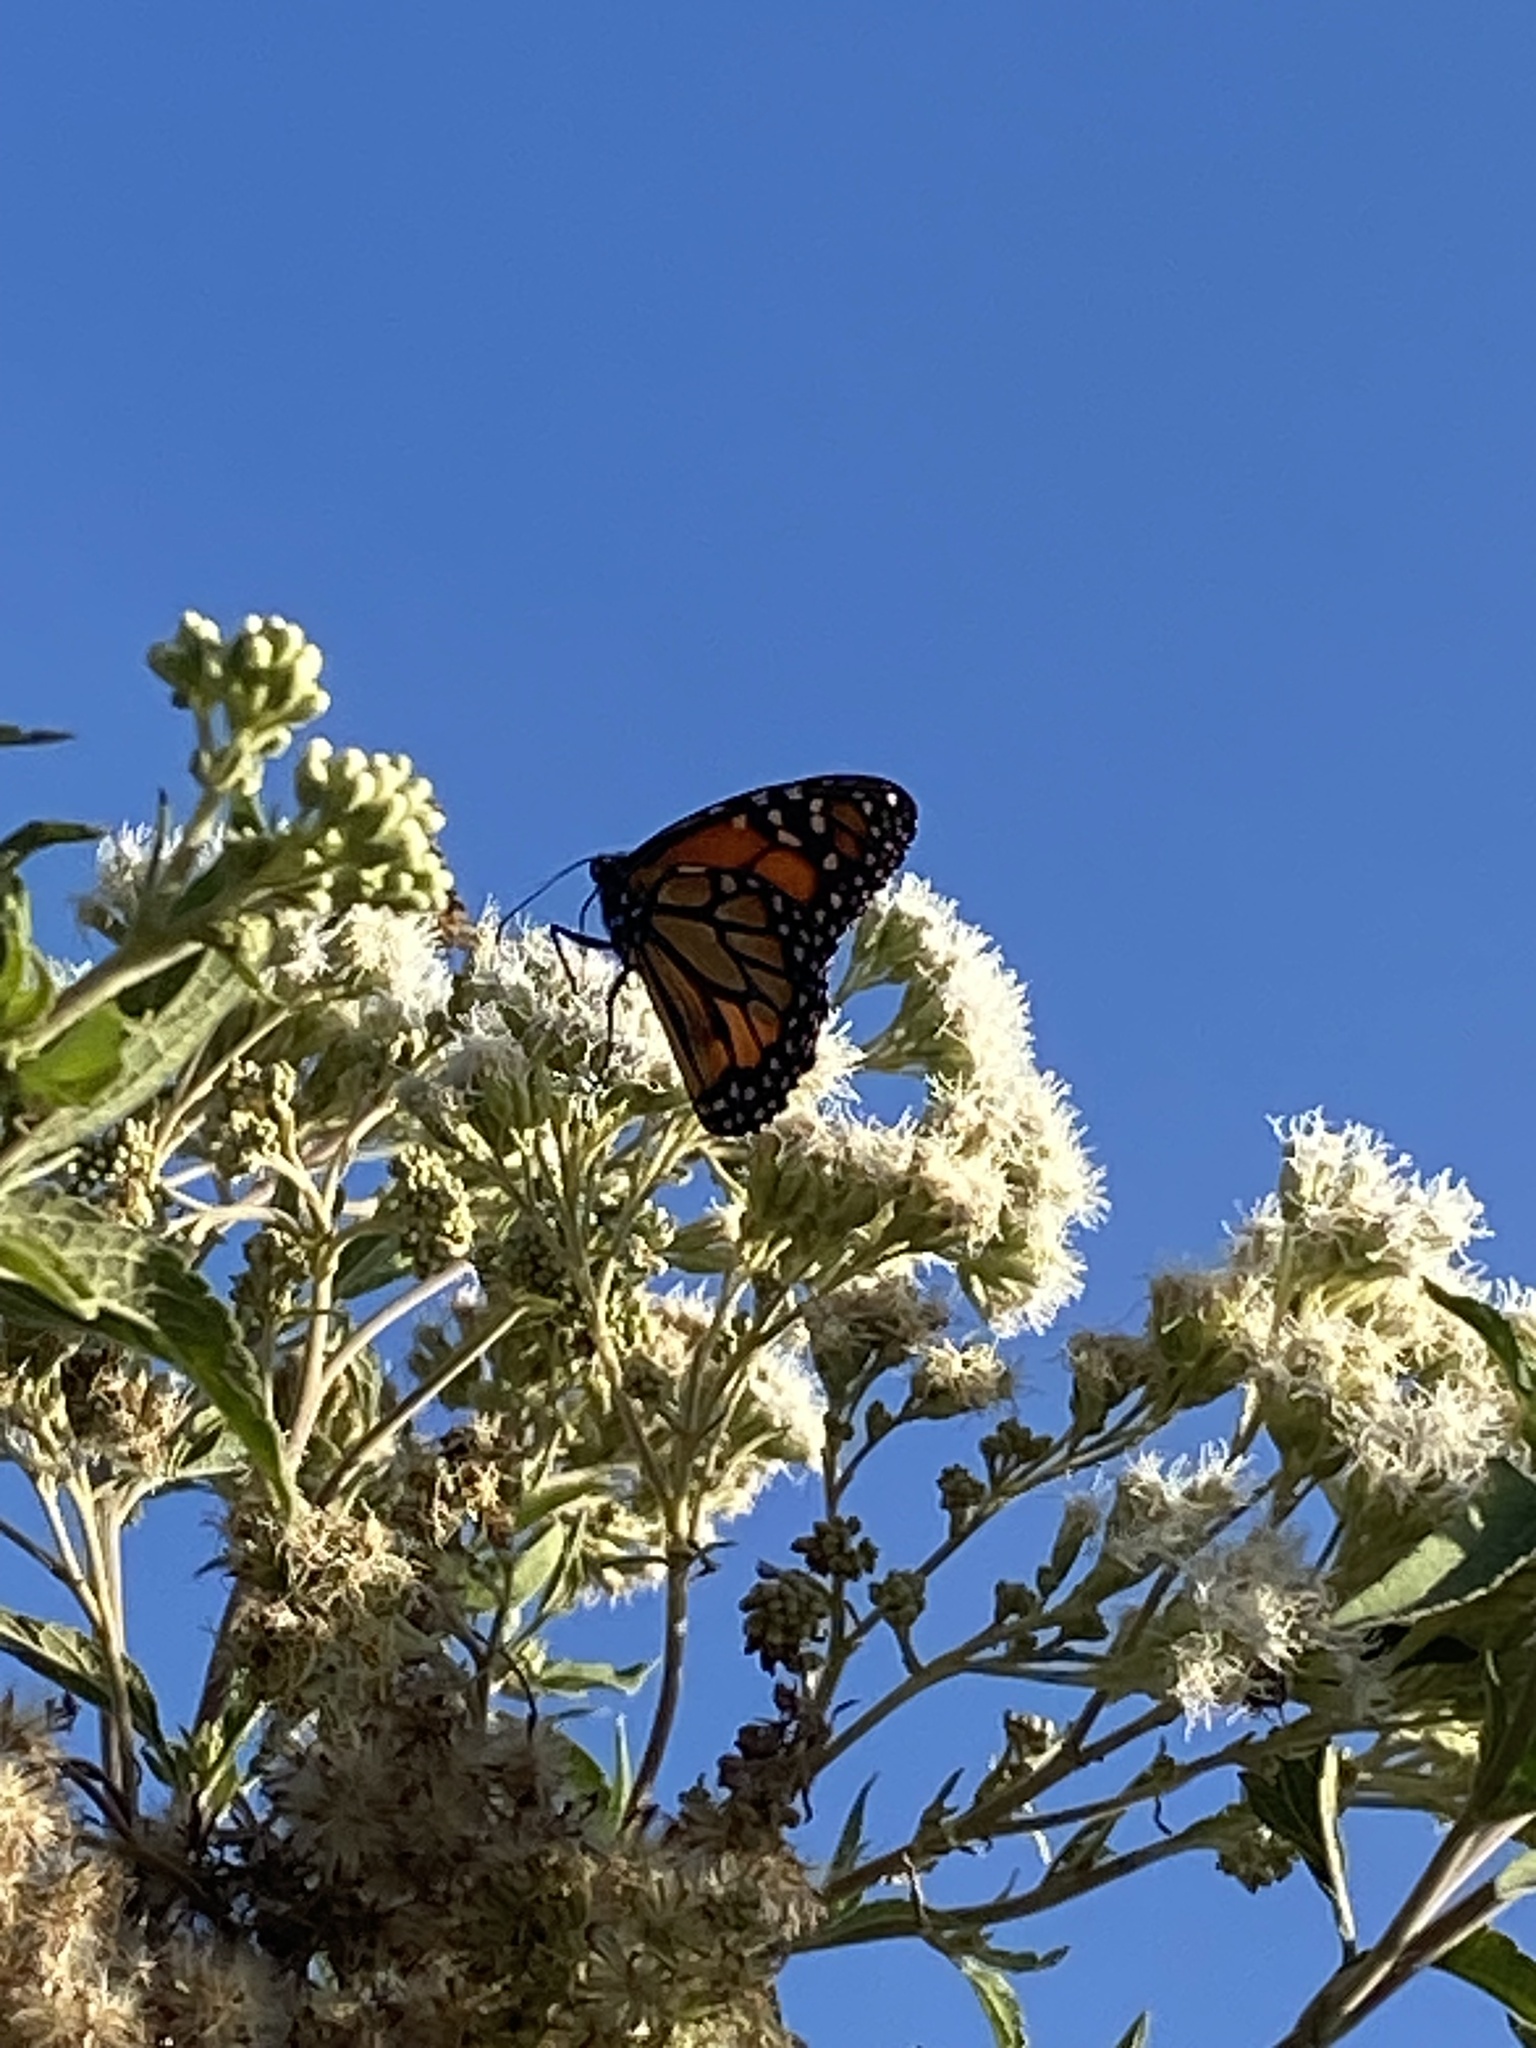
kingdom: Animalia
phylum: Arthropoda
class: Insecta
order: Lepidoptera
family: Nymphalidae
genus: Danaus
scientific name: Danaus erippus
